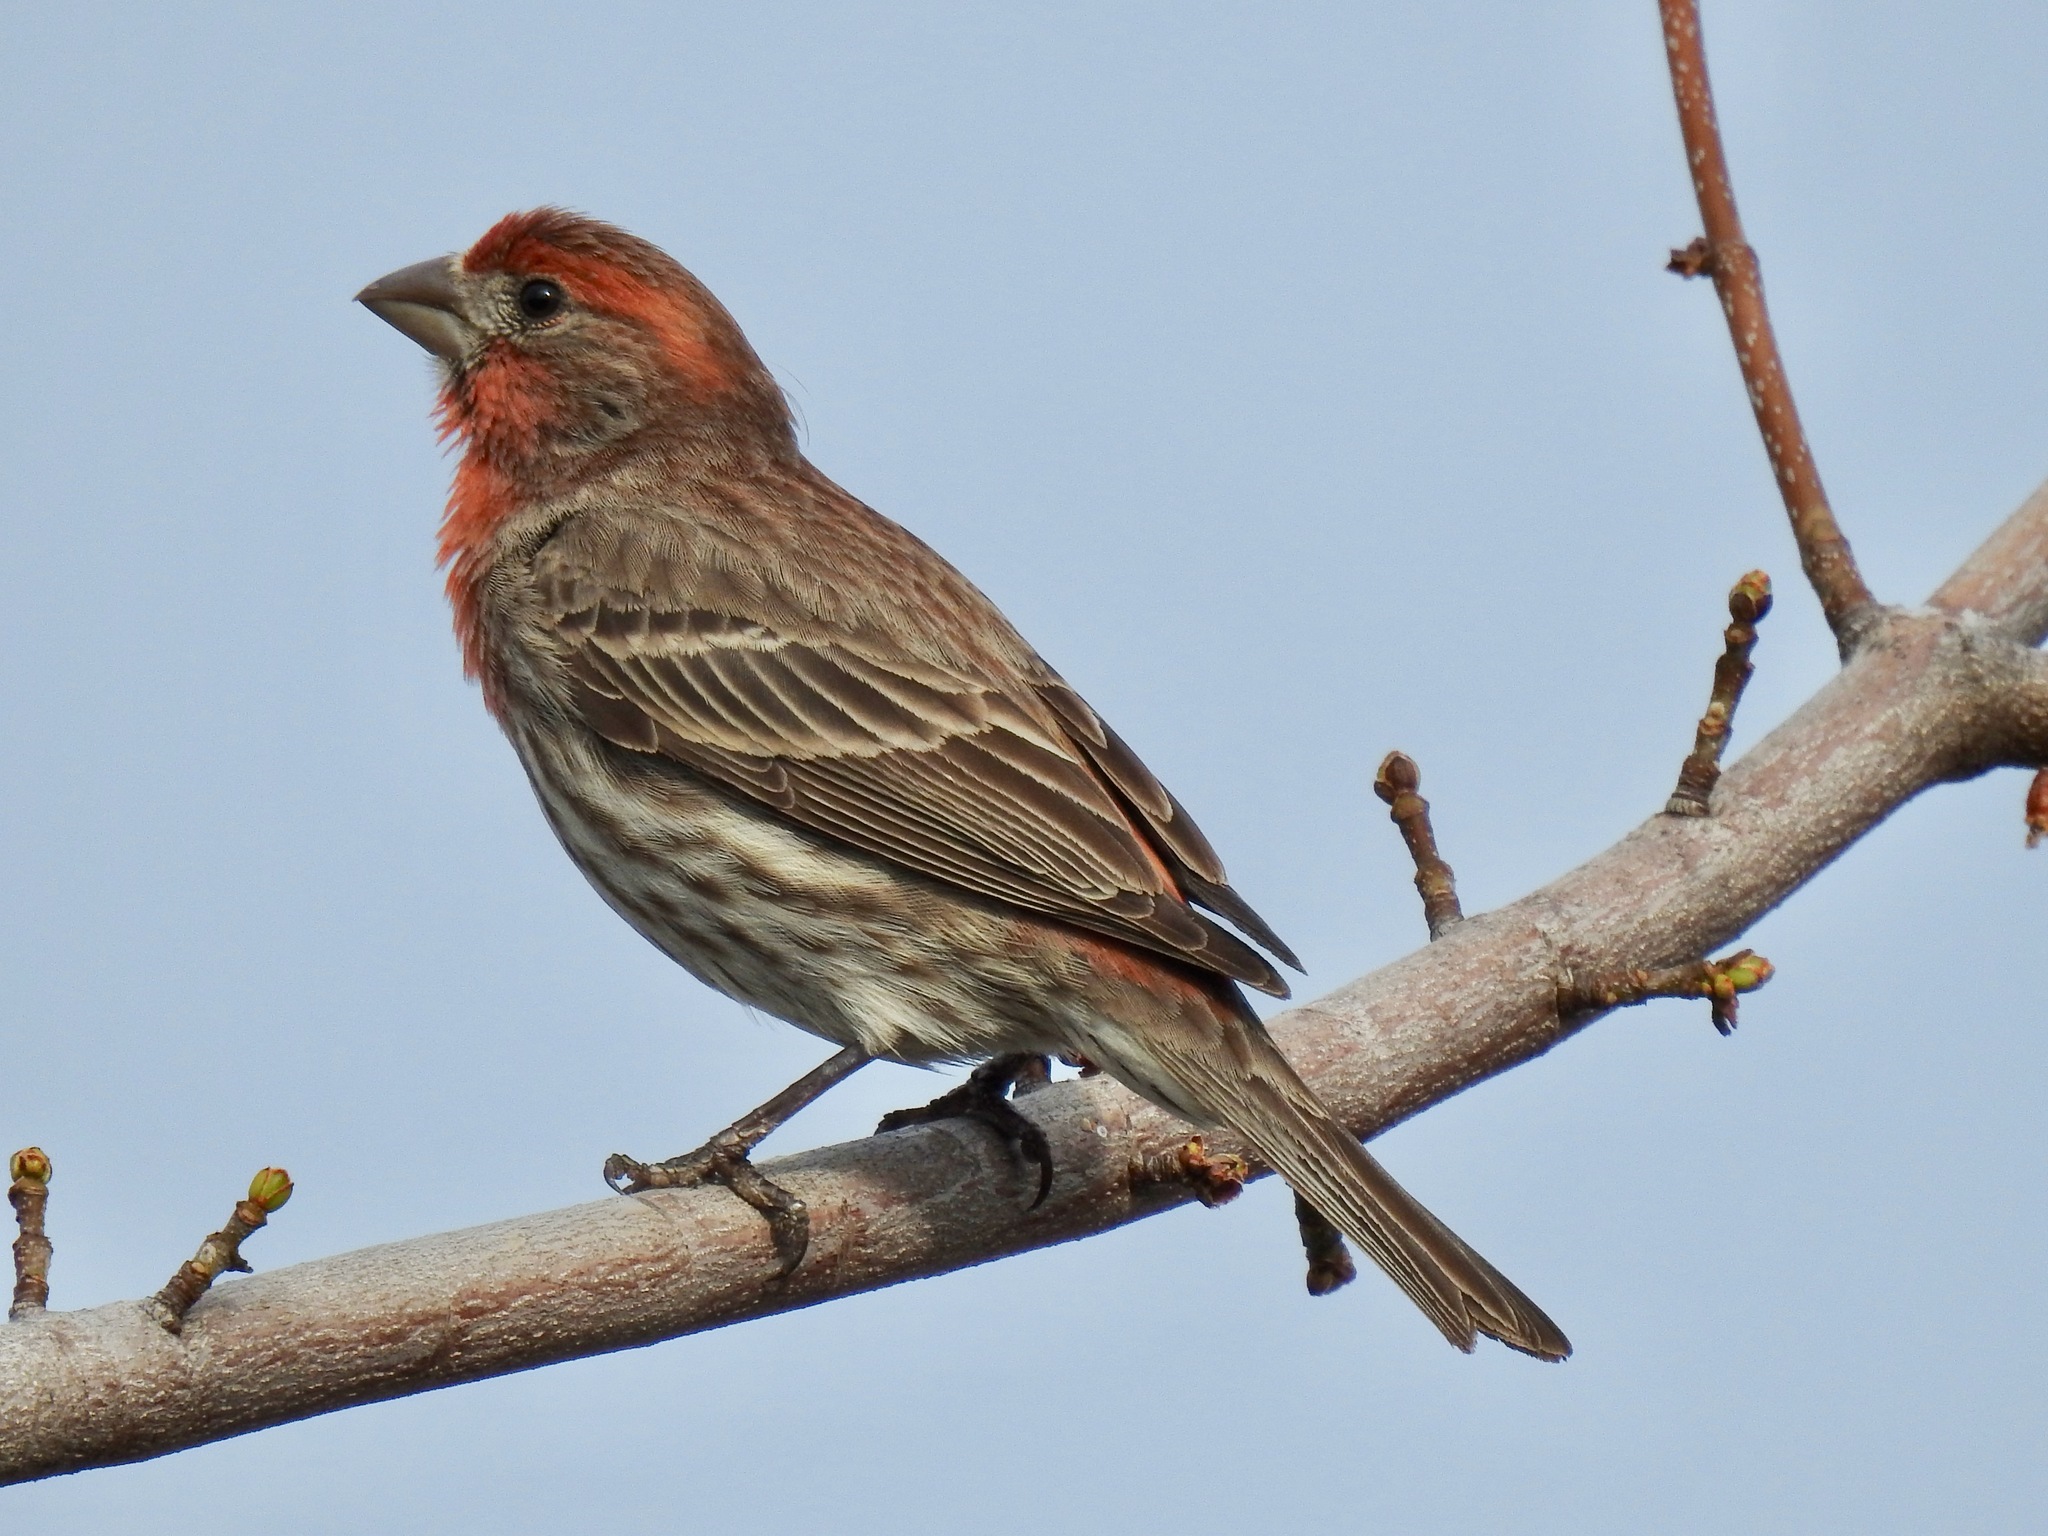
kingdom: Animalia
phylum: Chordata
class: Aves
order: Passeriformes
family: Fringillidae
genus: Haemorhous
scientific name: Haemorhous mexicanus
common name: House finch
